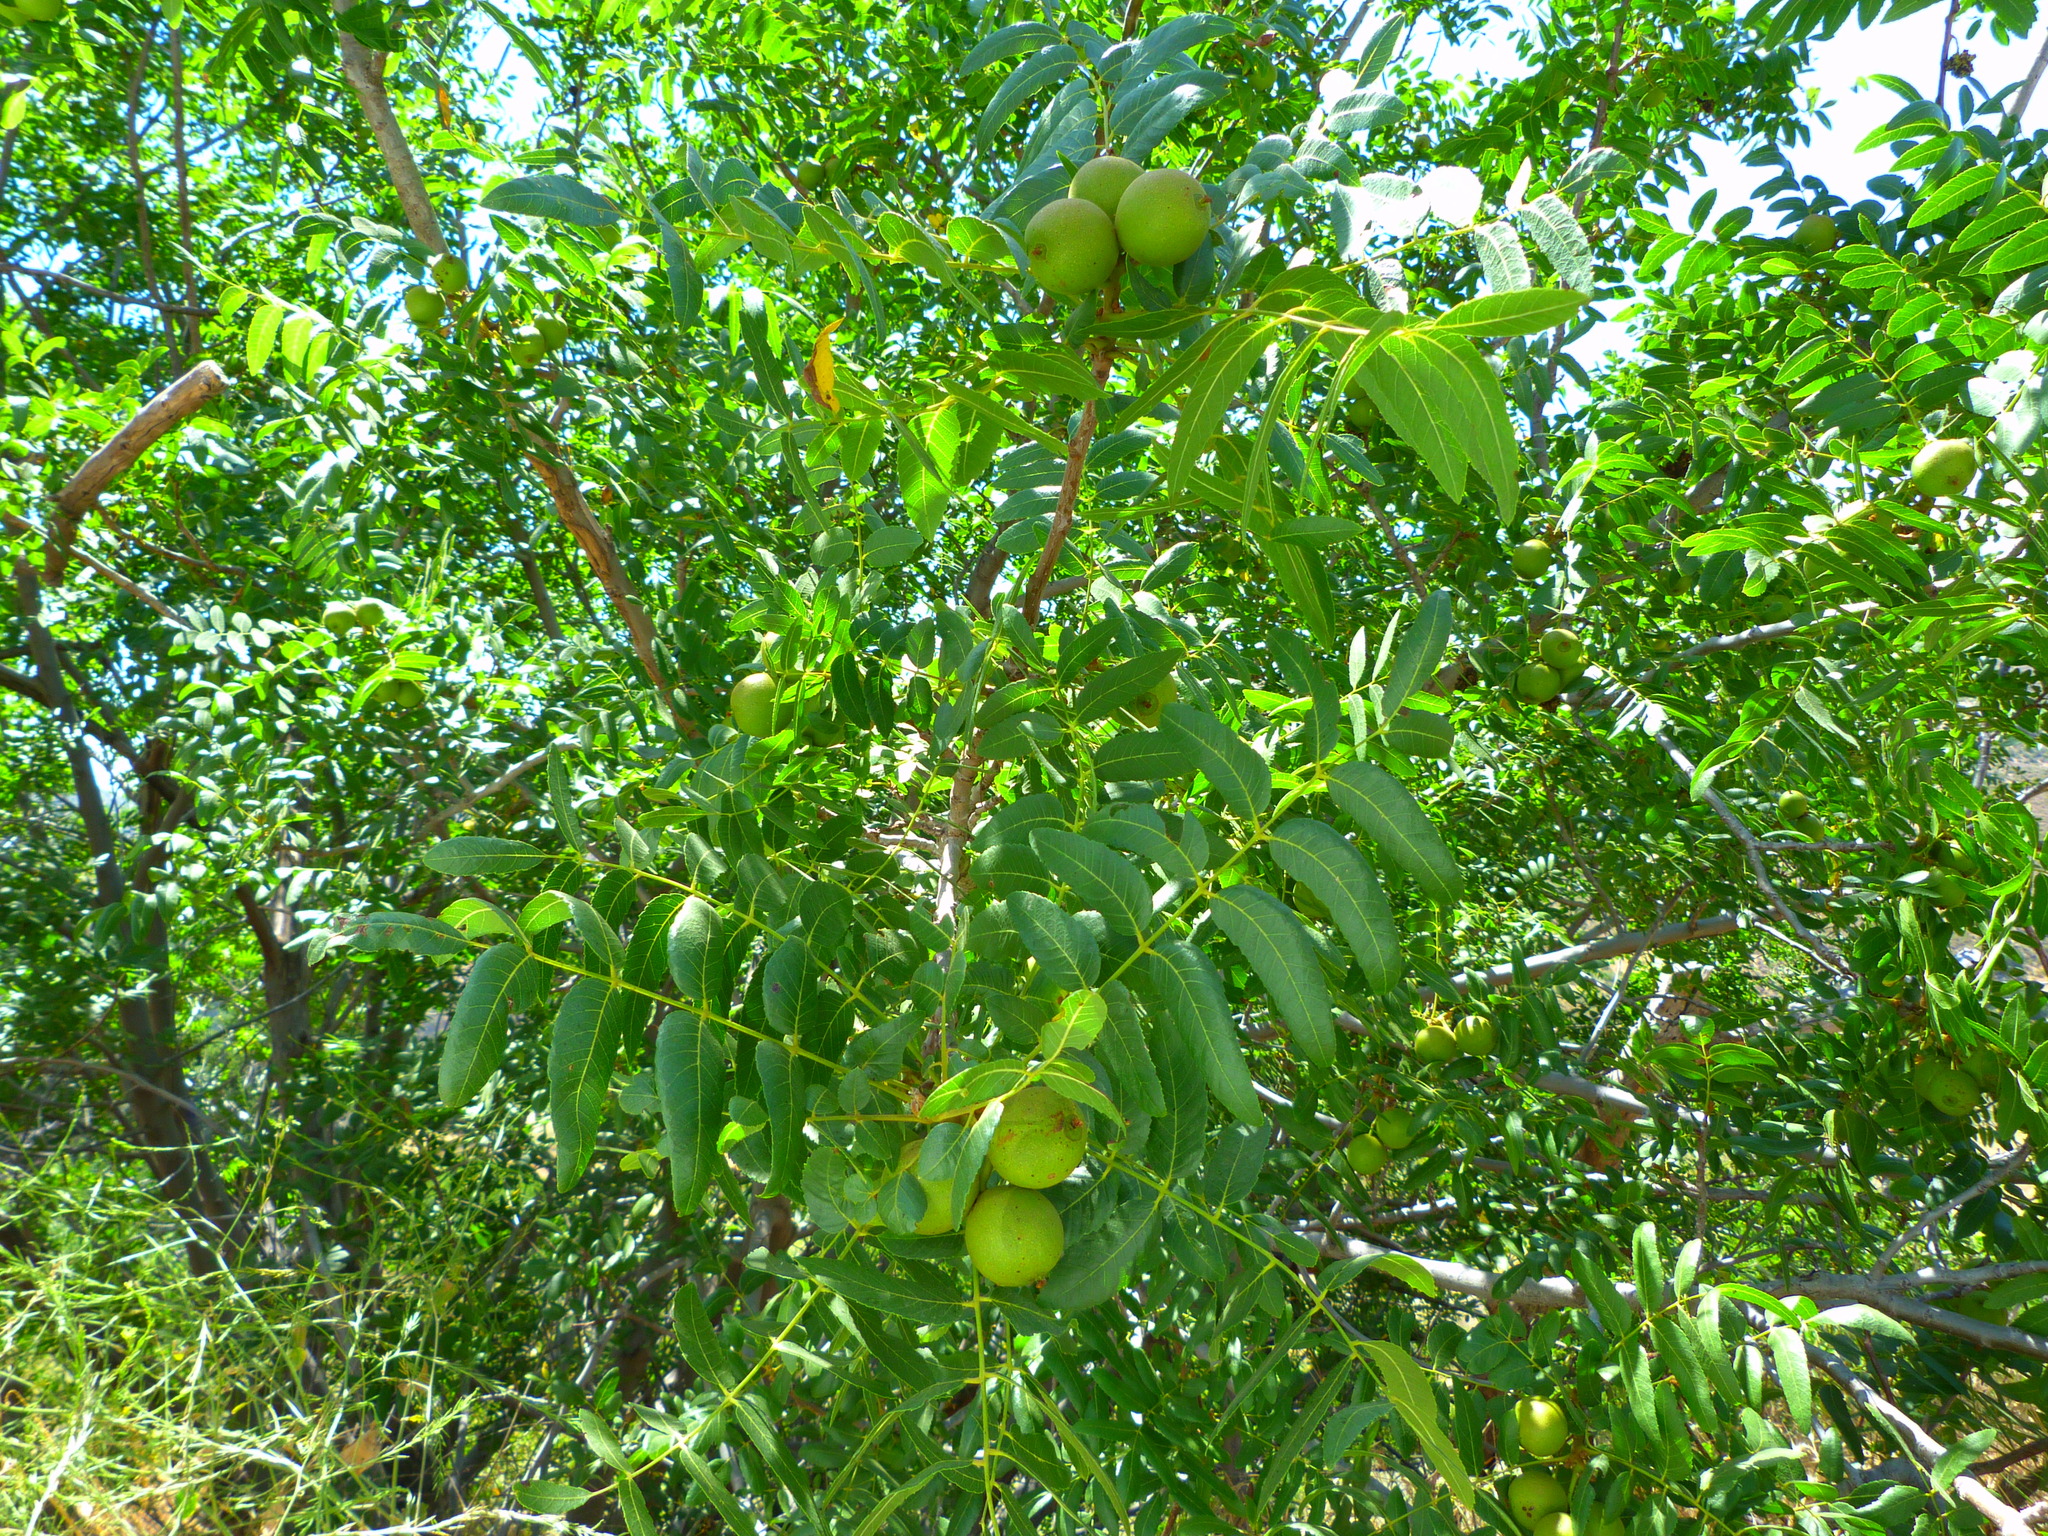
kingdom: Plantae
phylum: Tracheophyta
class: Magnoliopsida
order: Fagales
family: Juglandaceae
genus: Juglans
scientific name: Juglans californica
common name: Southern california black walnut
